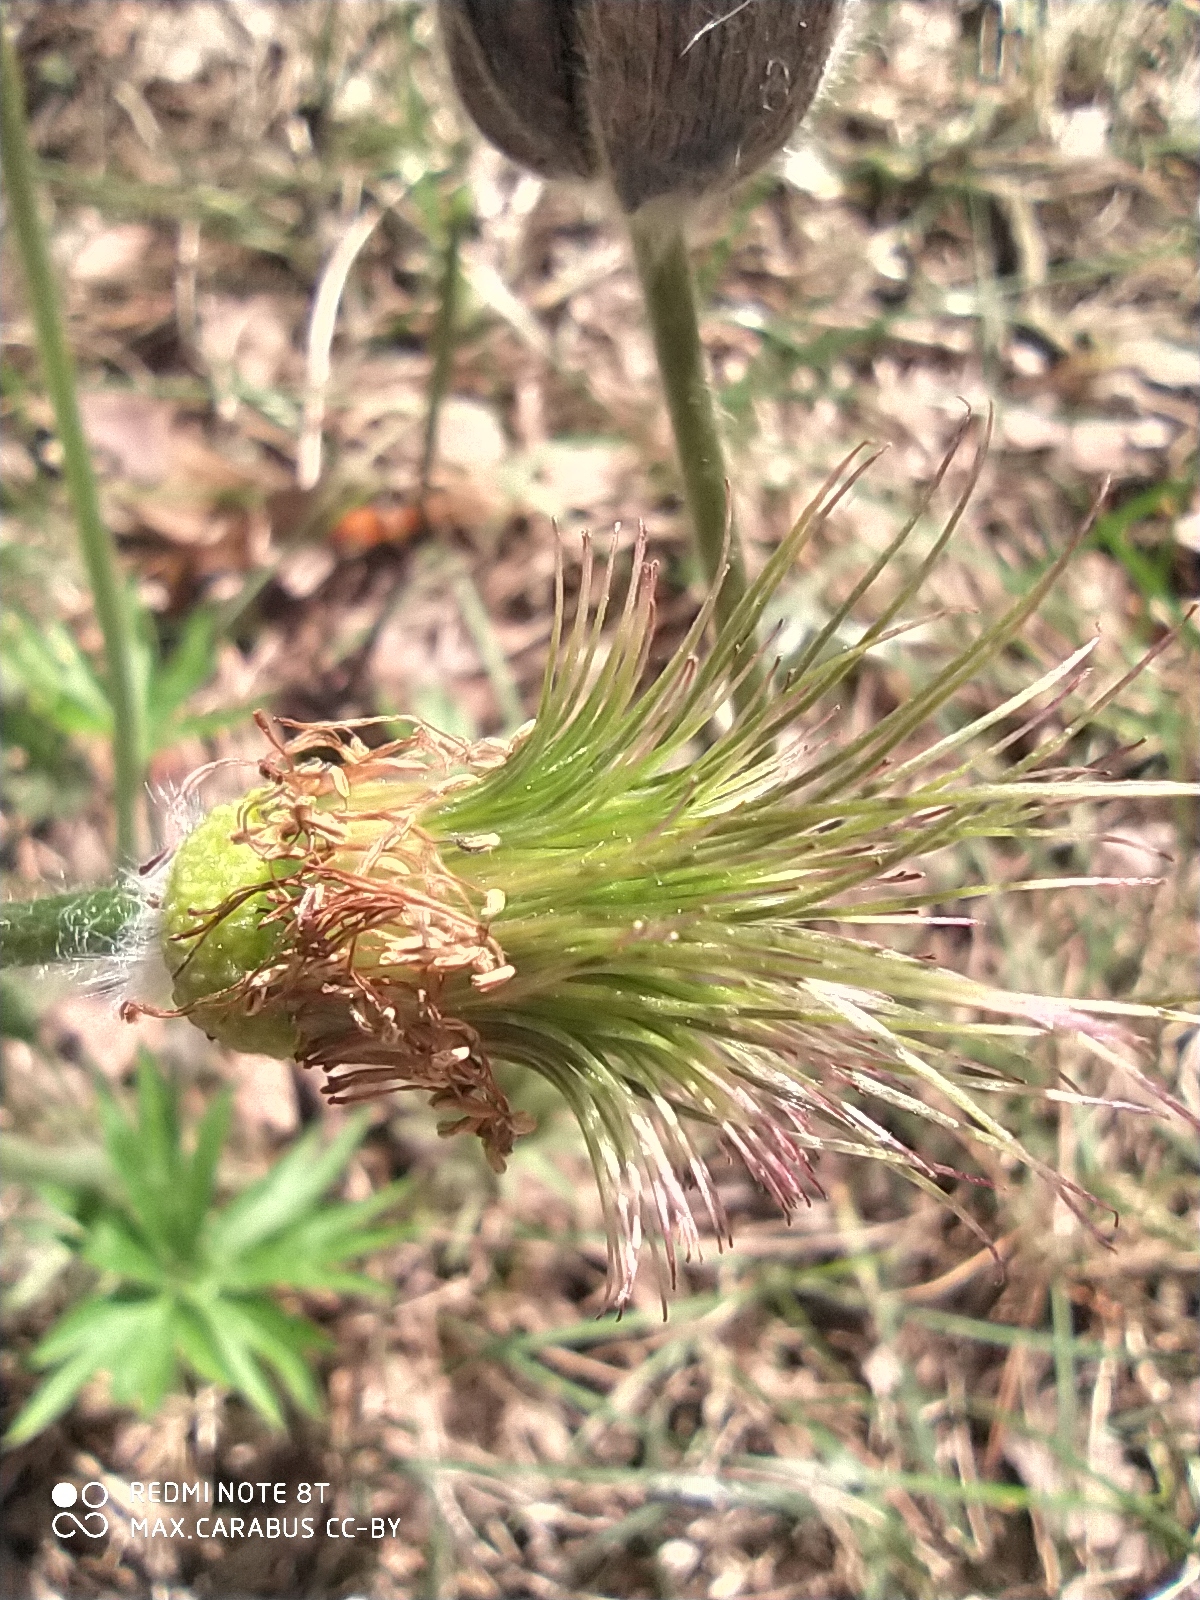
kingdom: Plantae
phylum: Tracheophyta
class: Magnoliopsida
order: Ranunculales
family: Ranunculaceae
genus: Pulsatilla
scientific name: Pulsatilla patens
